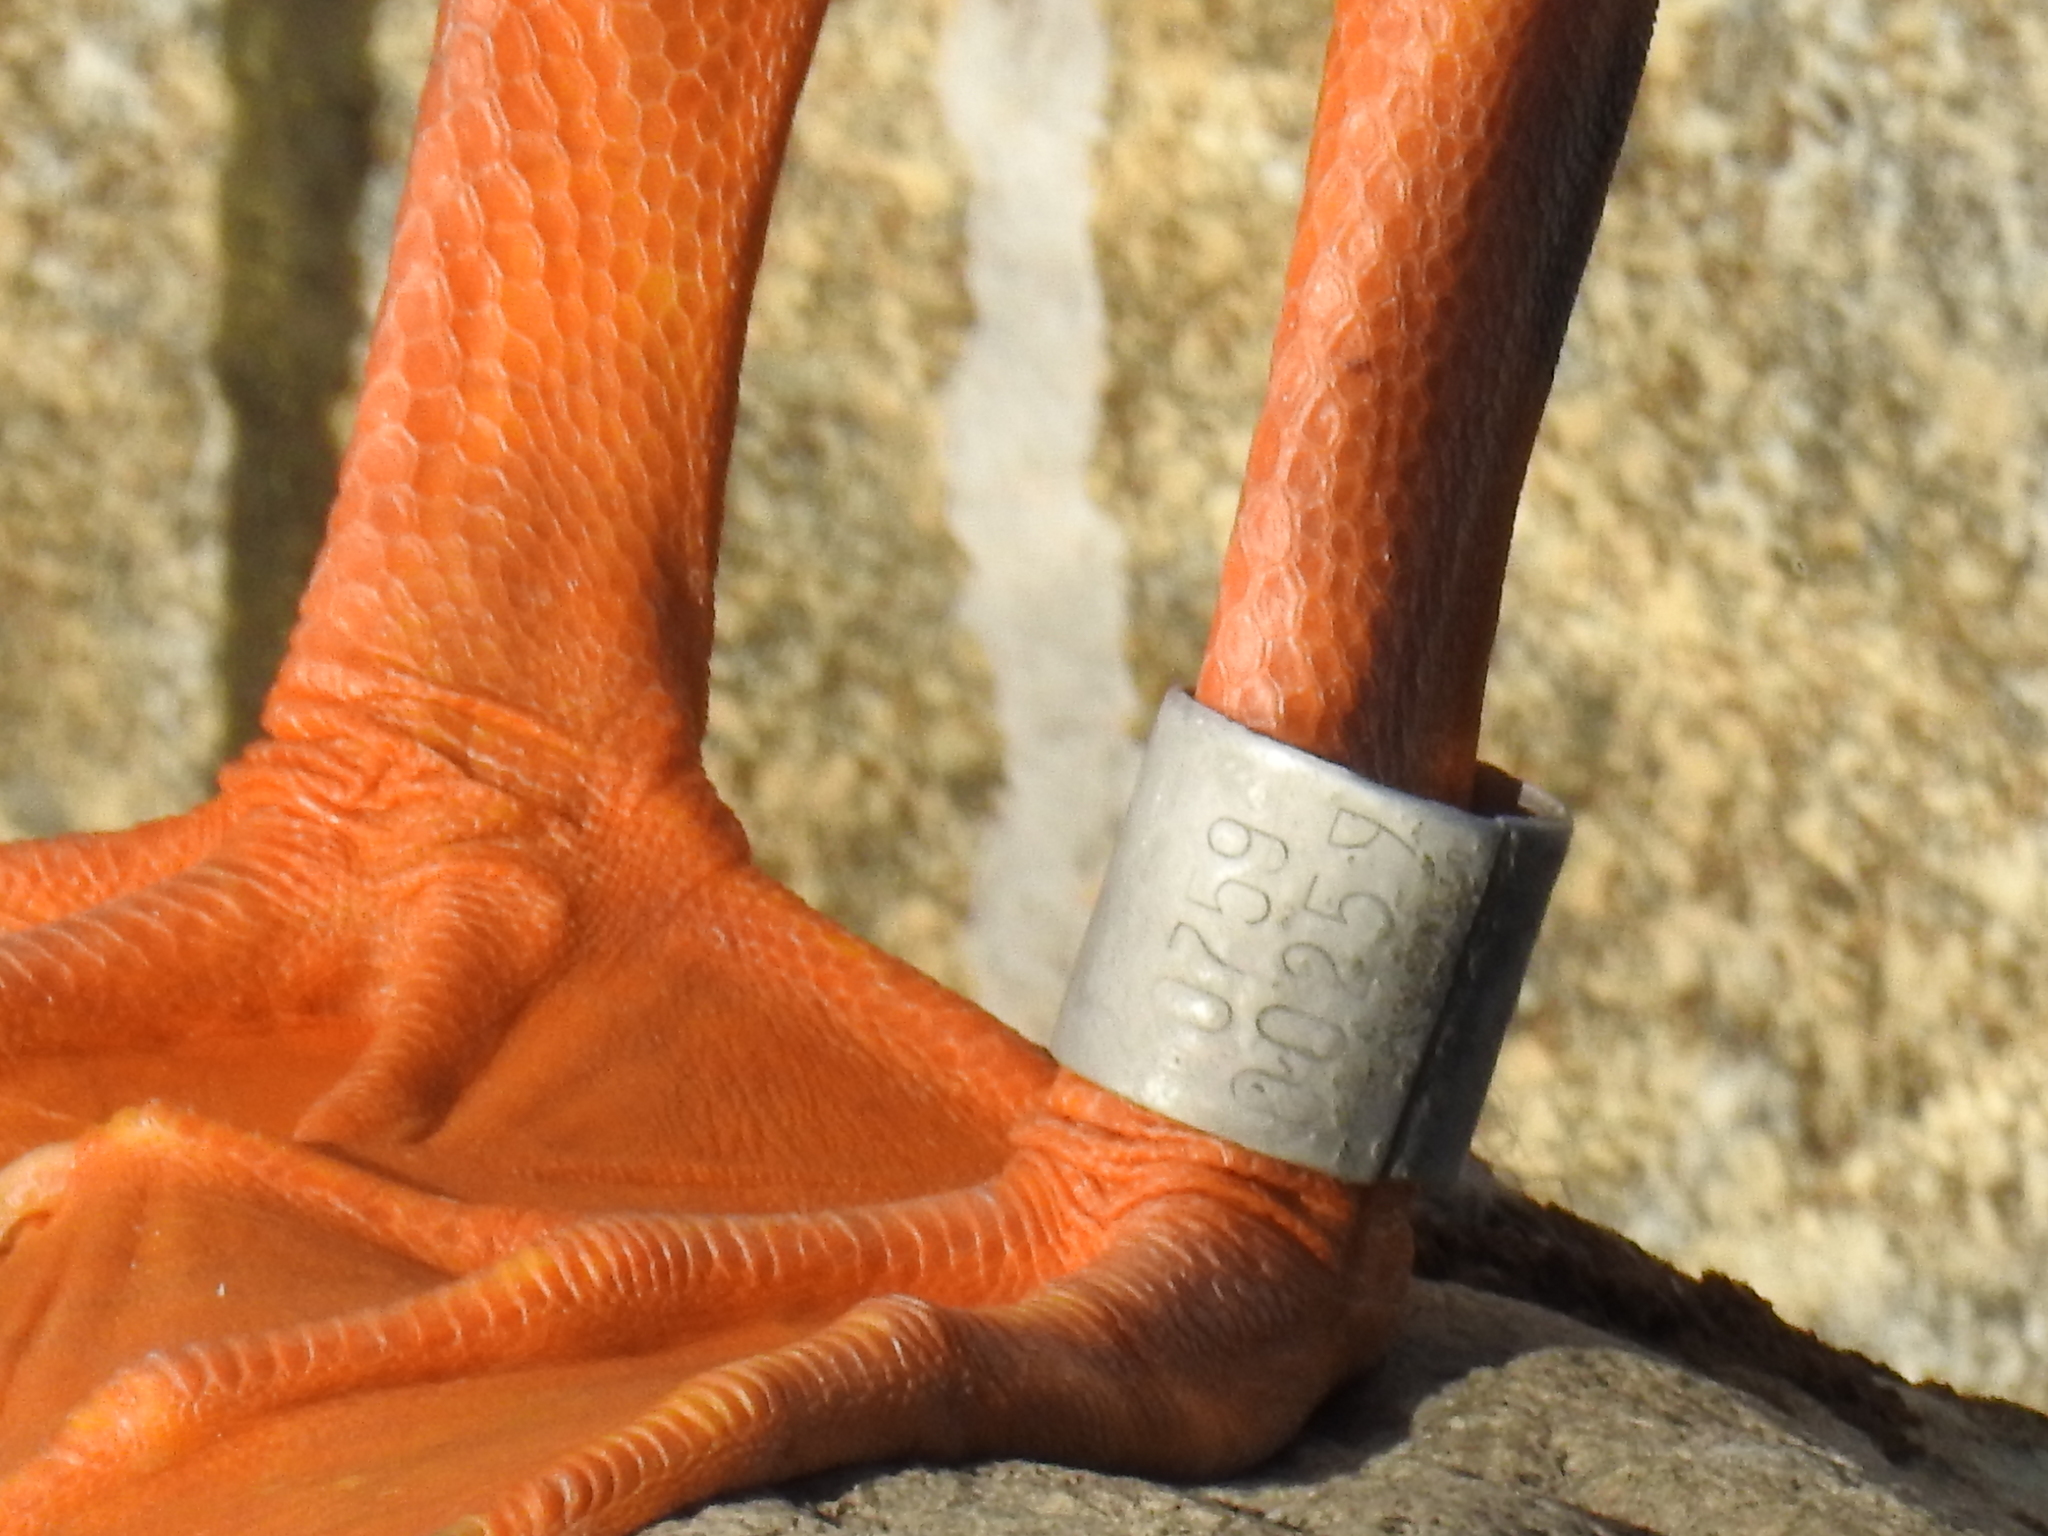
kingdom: Animalia
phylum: Chordata
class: Aves
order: Pelecaniformes
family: Pelecanidae
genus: Pelecanus
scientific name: Pelecanus erythrorhynchos
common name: American white pelican
